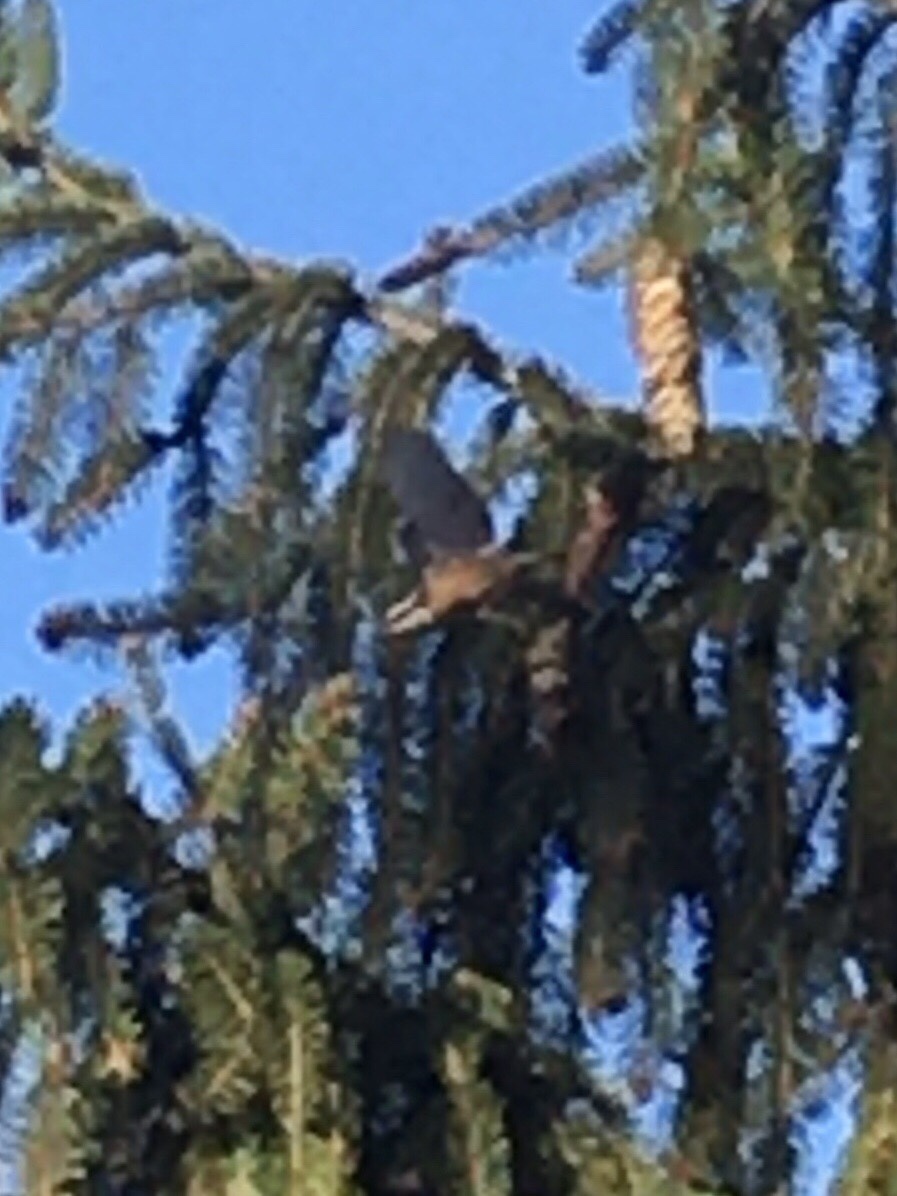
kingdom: Animalia
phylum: Chordata
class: Aves
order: Passeriformes
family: Sittidae
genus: Sitta
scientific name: Sitta canadensis
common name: Red-breasted nuthatch
